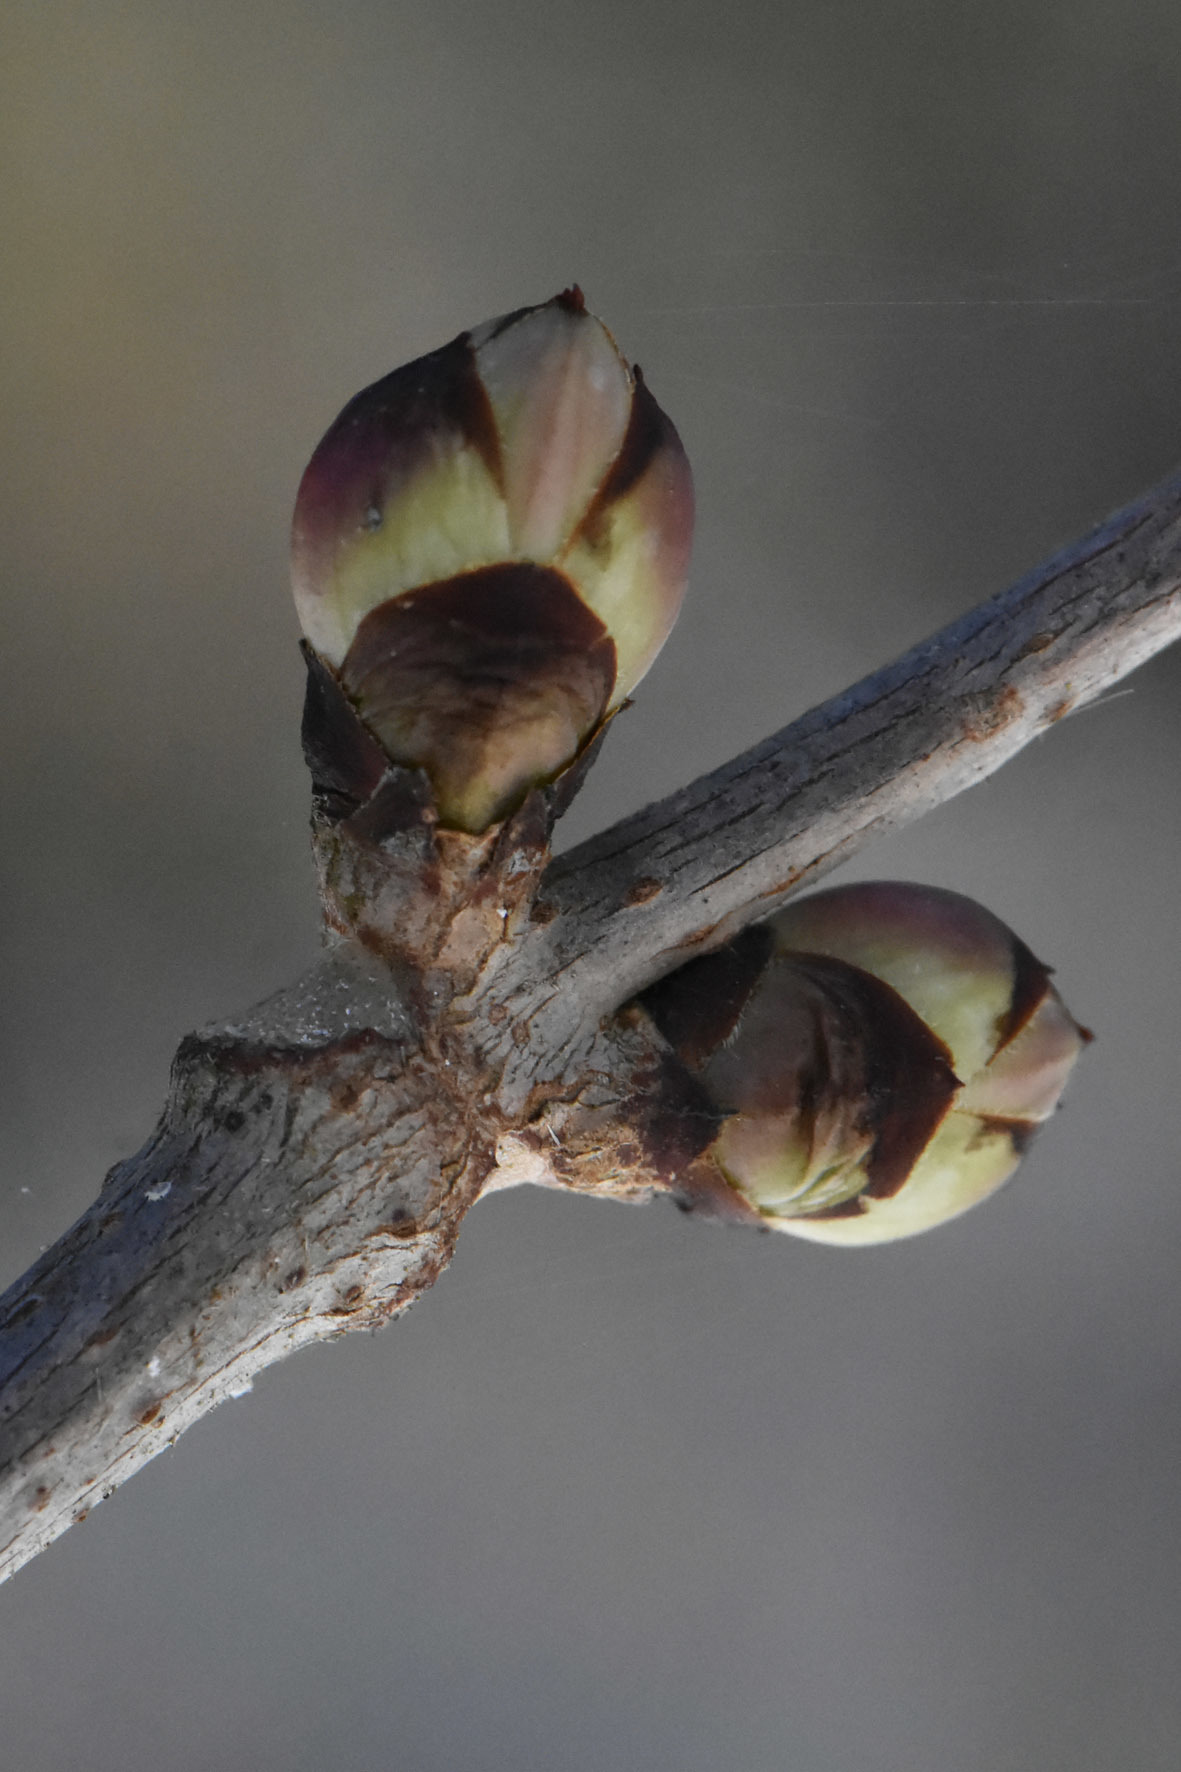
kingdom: Plantae
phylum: Tracheophyta
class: Magnoliopsida
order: Dipsacales
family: Viburnaceae
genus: Sambucus
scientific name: Sambucus racemosa
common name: Red-berried elder
